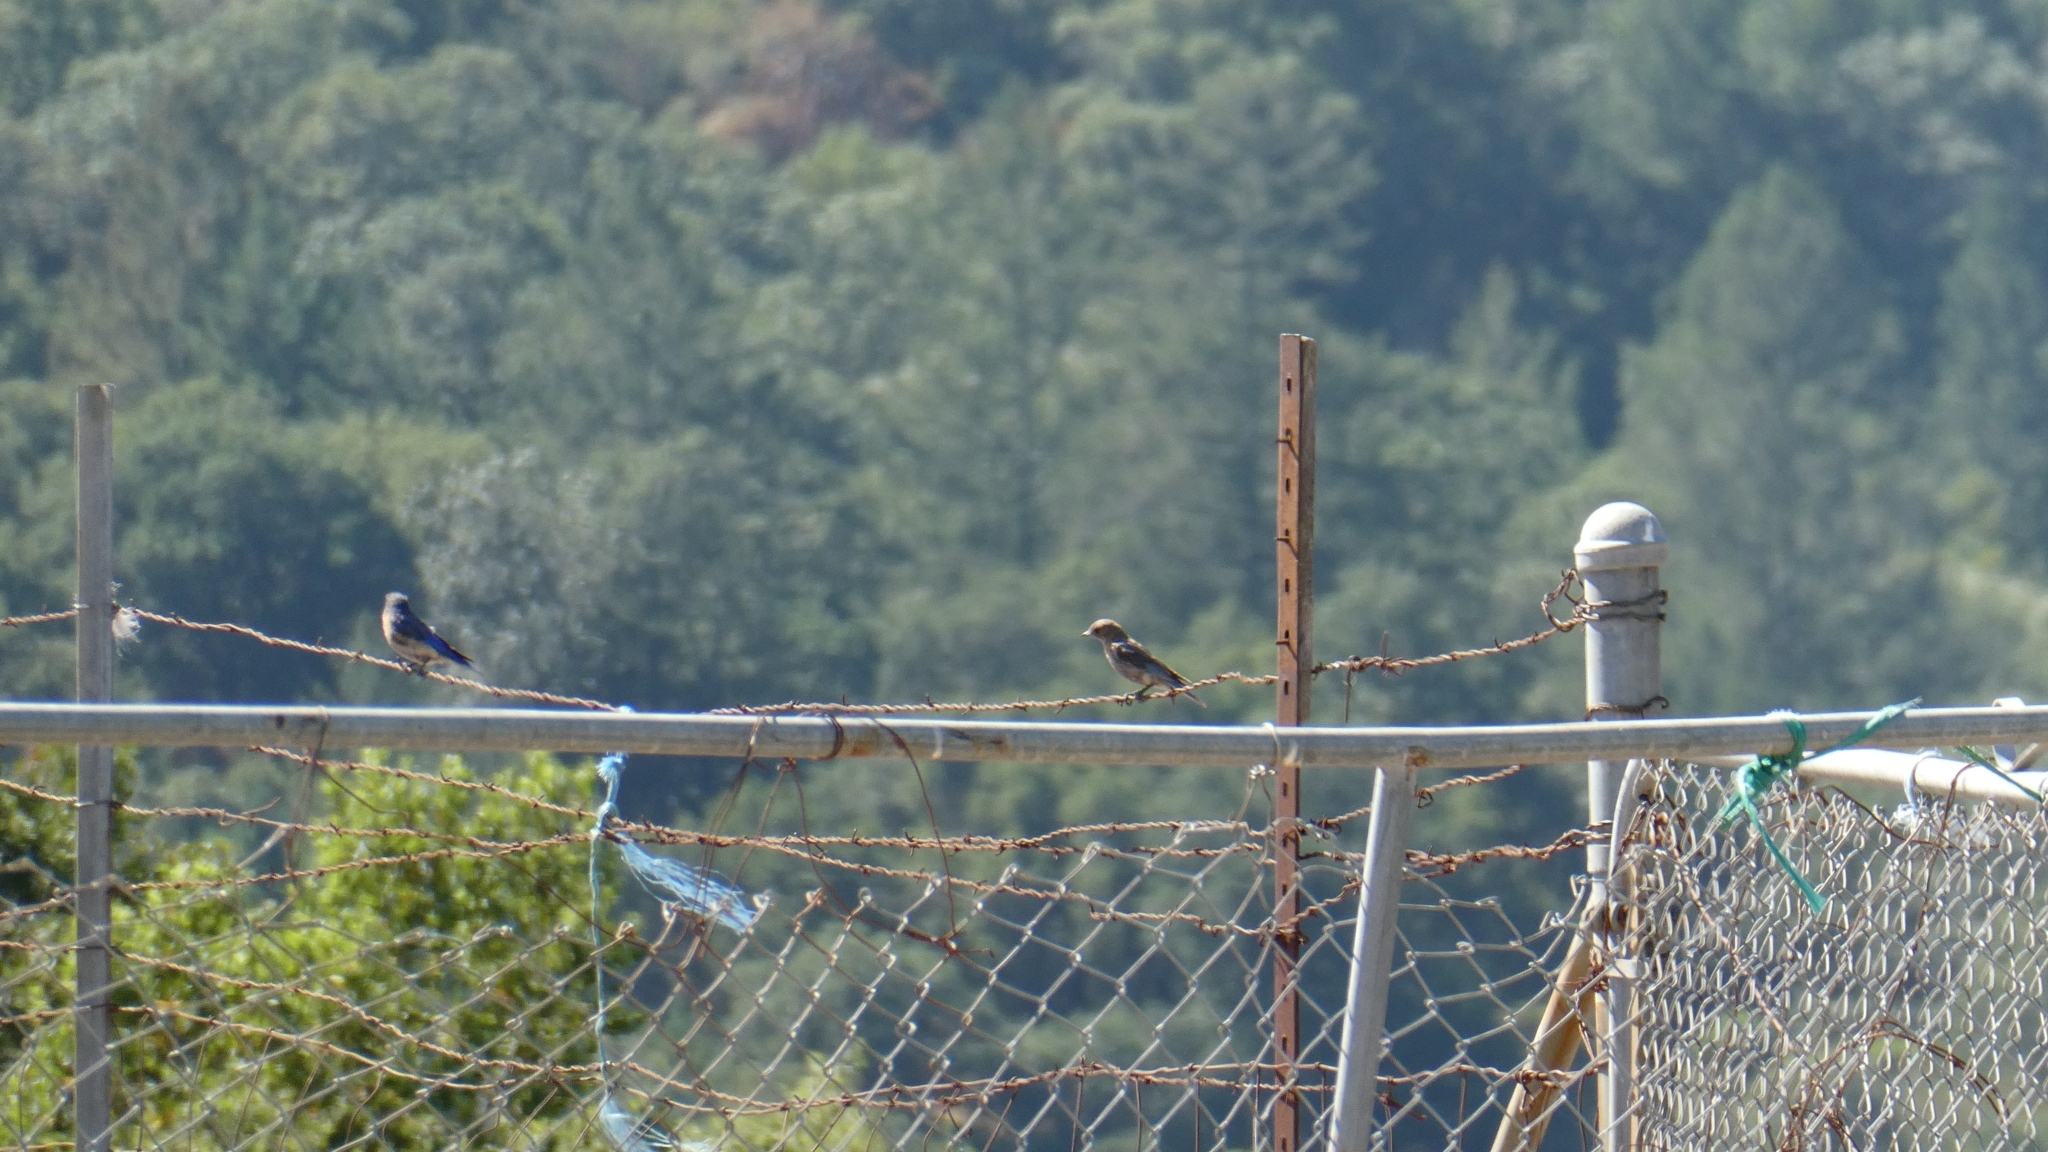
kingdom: Animalia
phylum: Chordata
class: Aves
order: Passeriformes
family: Turdidae
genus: Sialia
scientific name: Sialia mexicana
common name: Western bluebird
